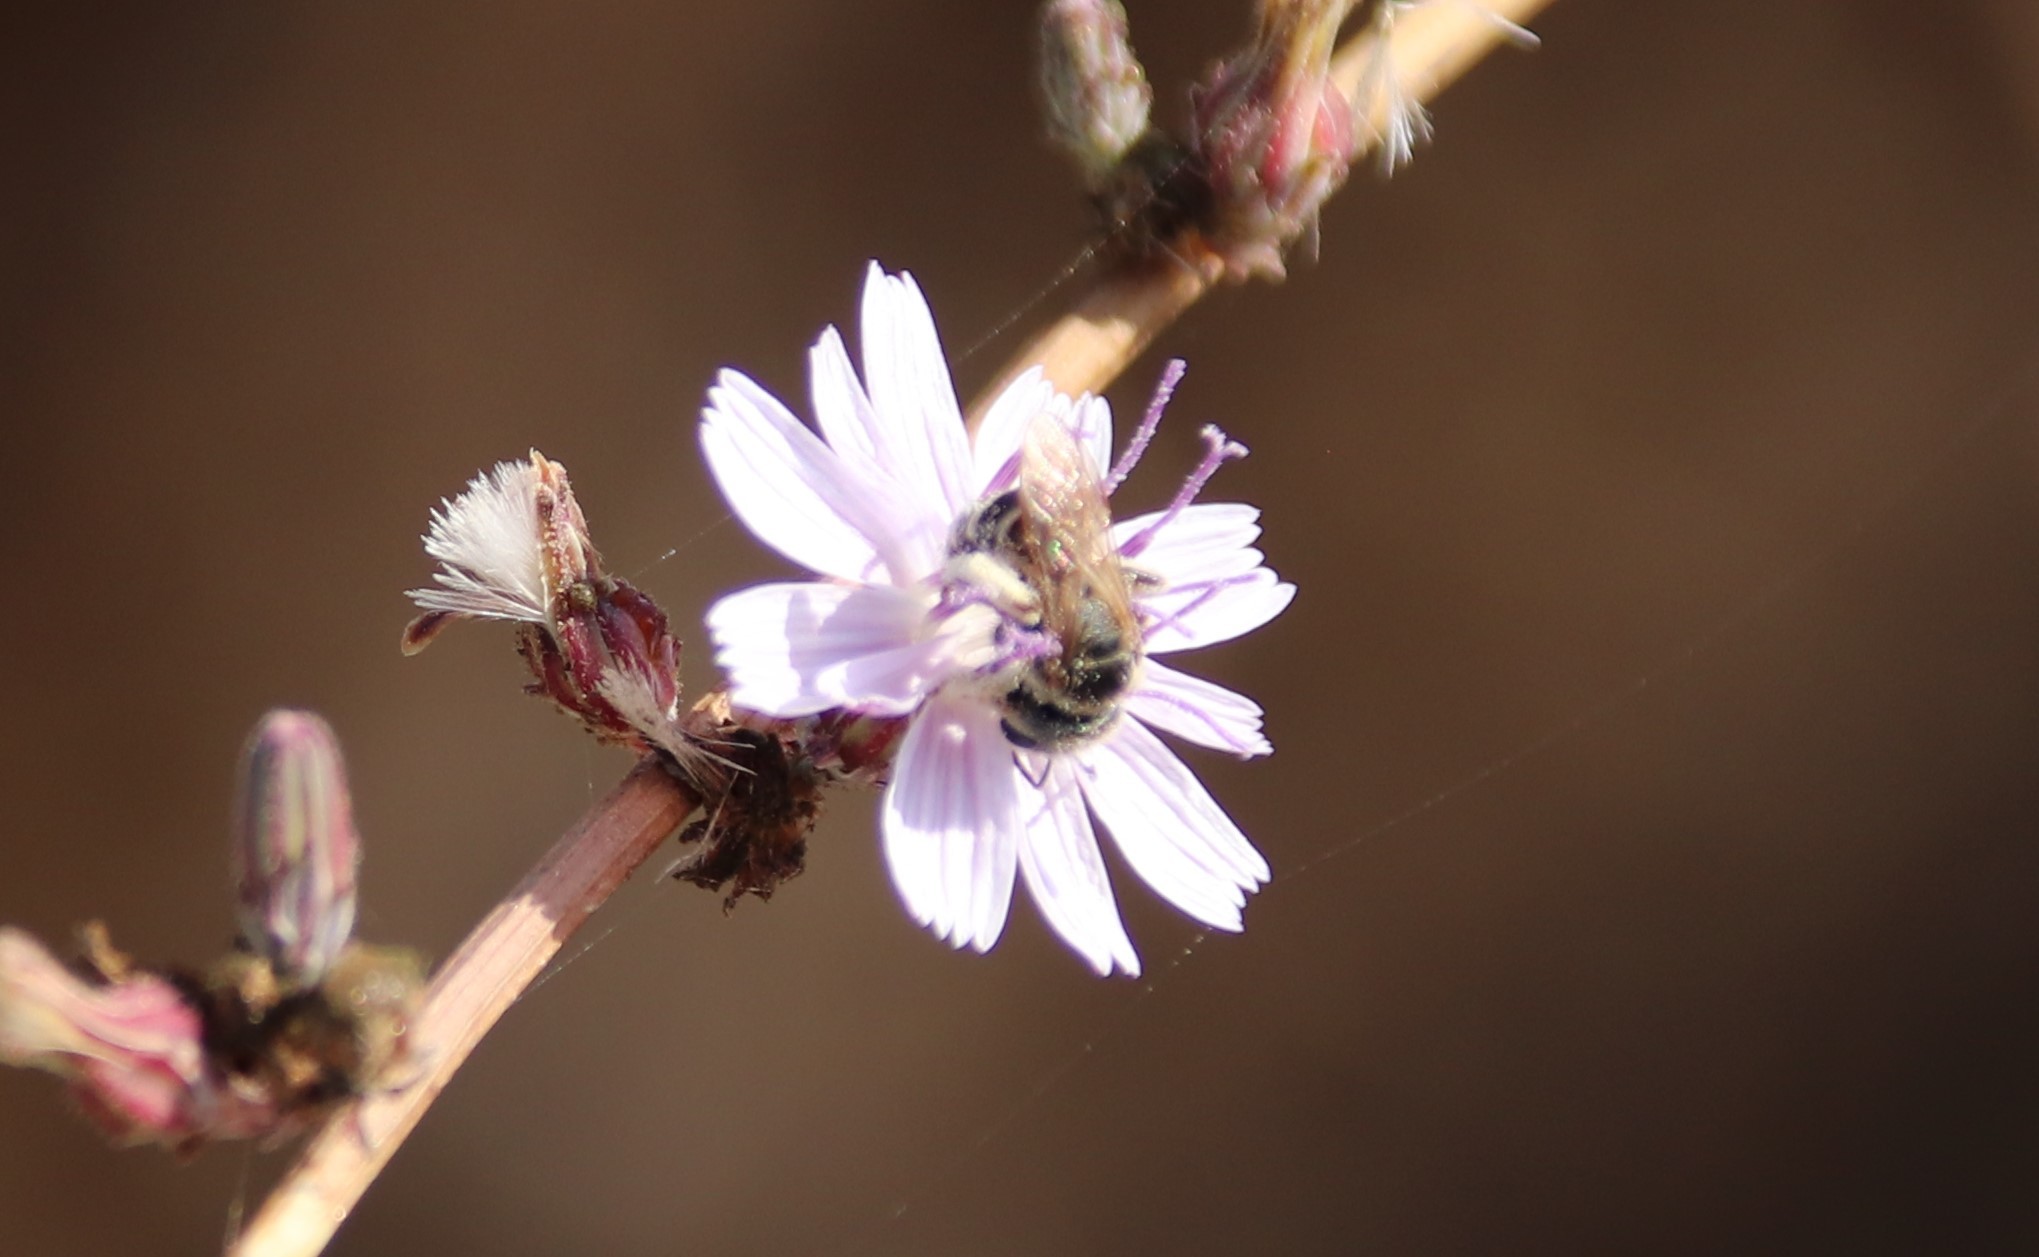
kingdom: Animalia
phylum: Arthropoda
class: Insecta
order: Hymenoptera
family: Halictidae
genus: Halictus
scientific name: Halictus ligatus
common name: Ligated furrow bee
